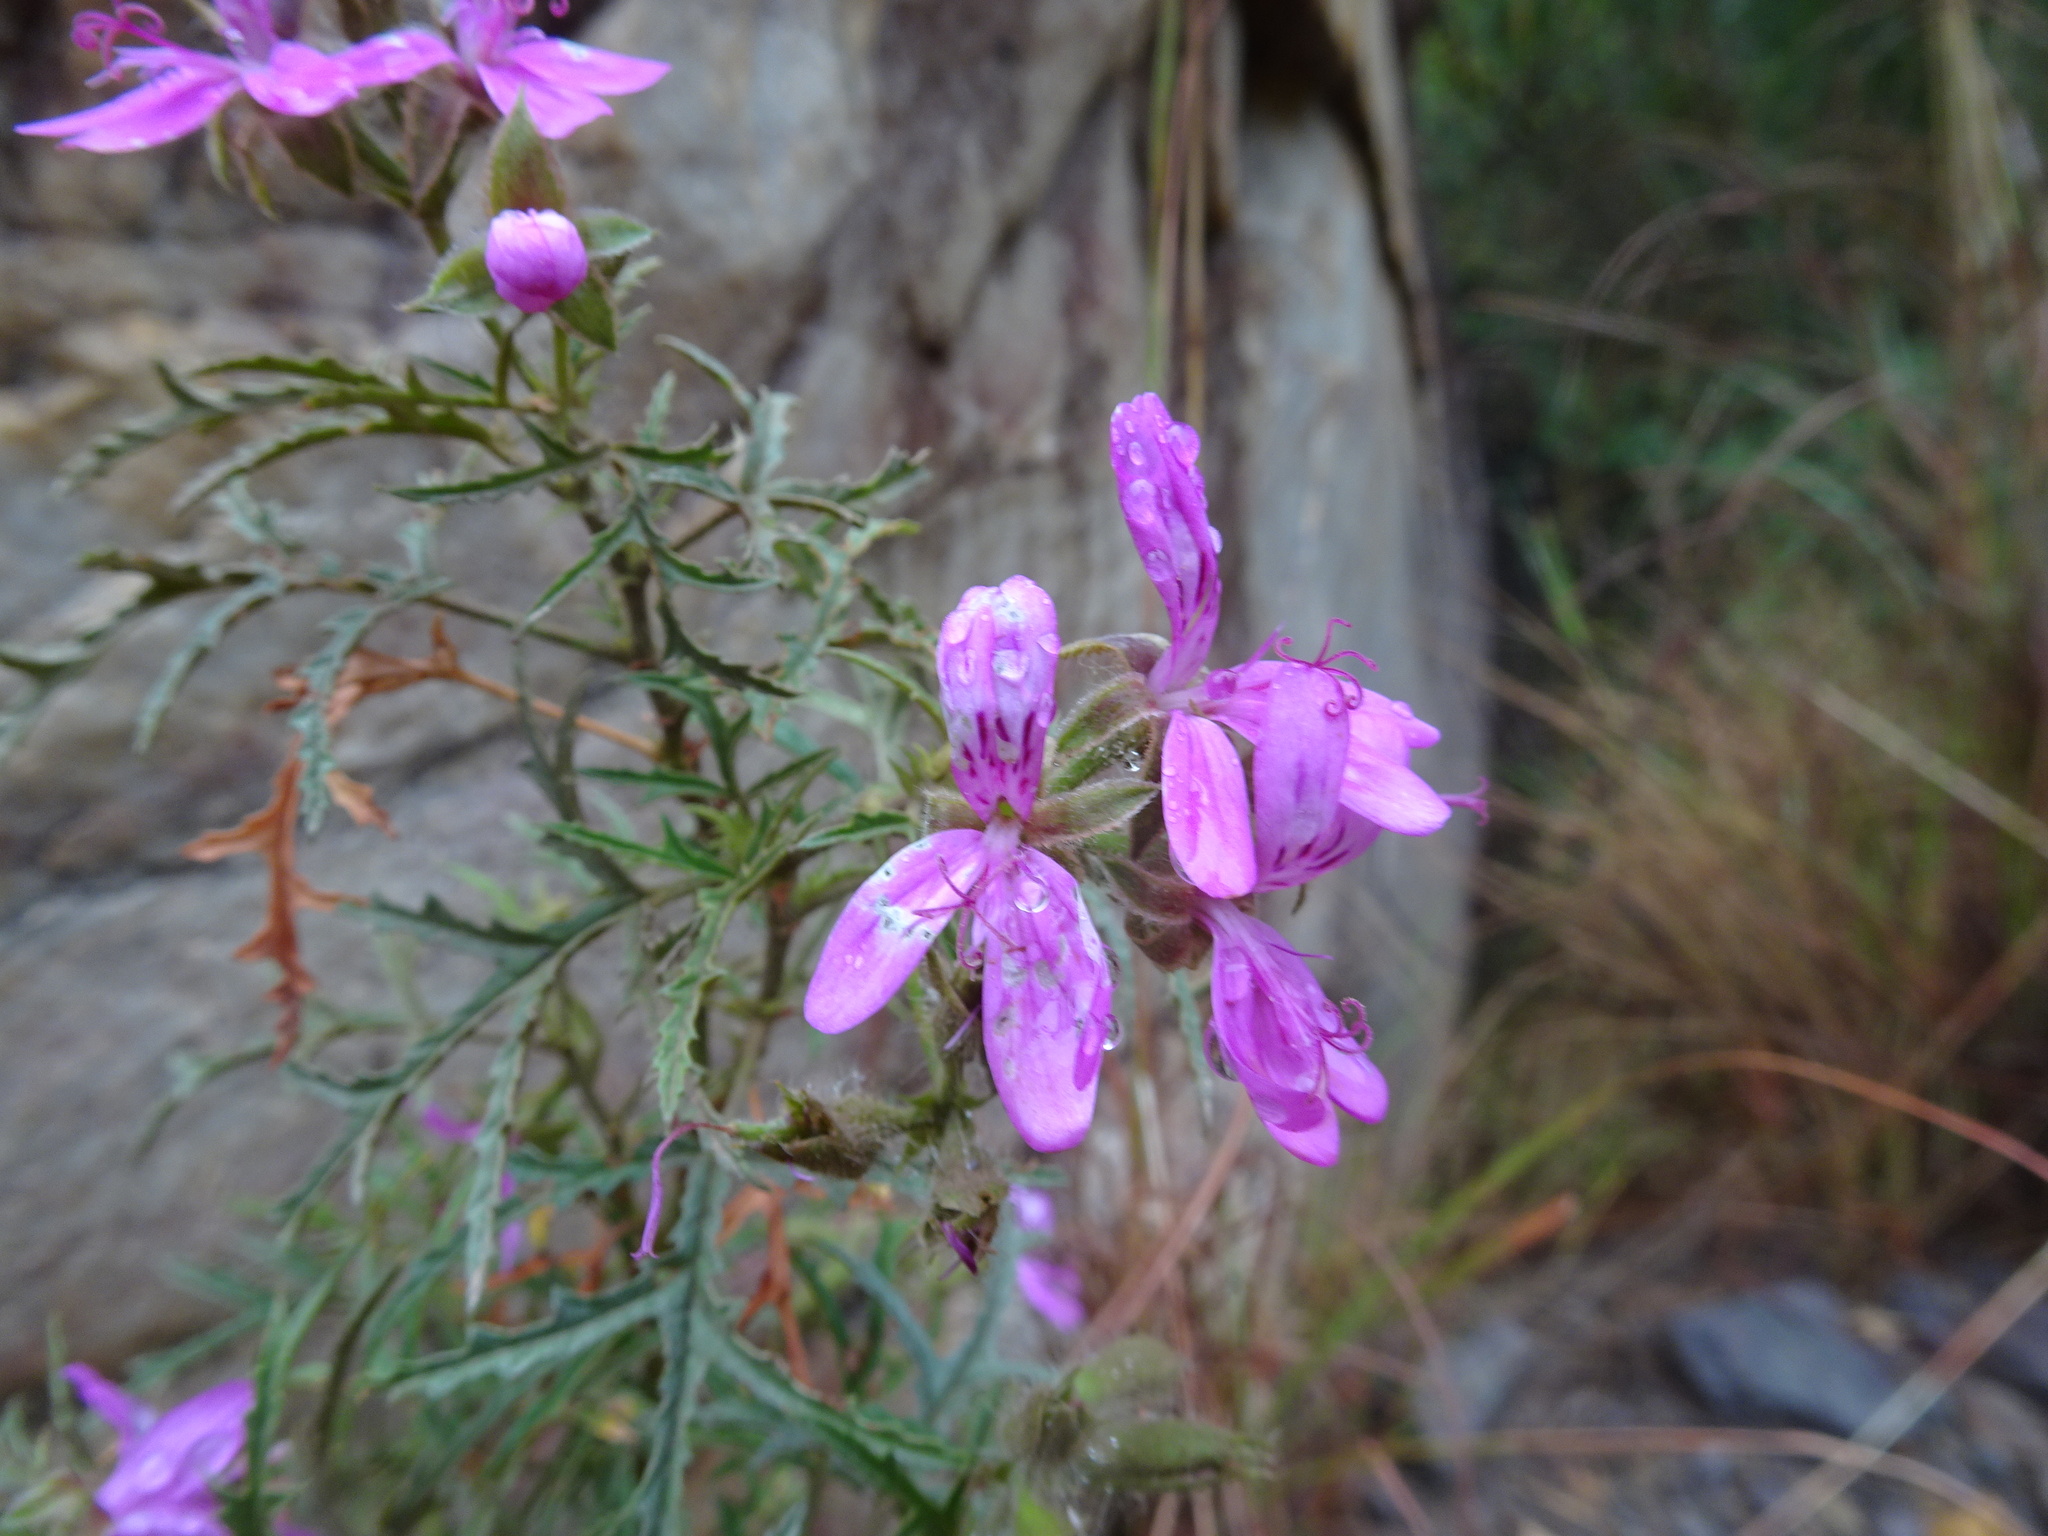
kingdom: Plantae
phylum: Tracheophyta
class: Magnoliopsida
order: Geraniales
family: Geraniaceae
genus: Pelargonium
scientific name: Pelargonium glutinosum
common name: Pheasant-foot geranium
